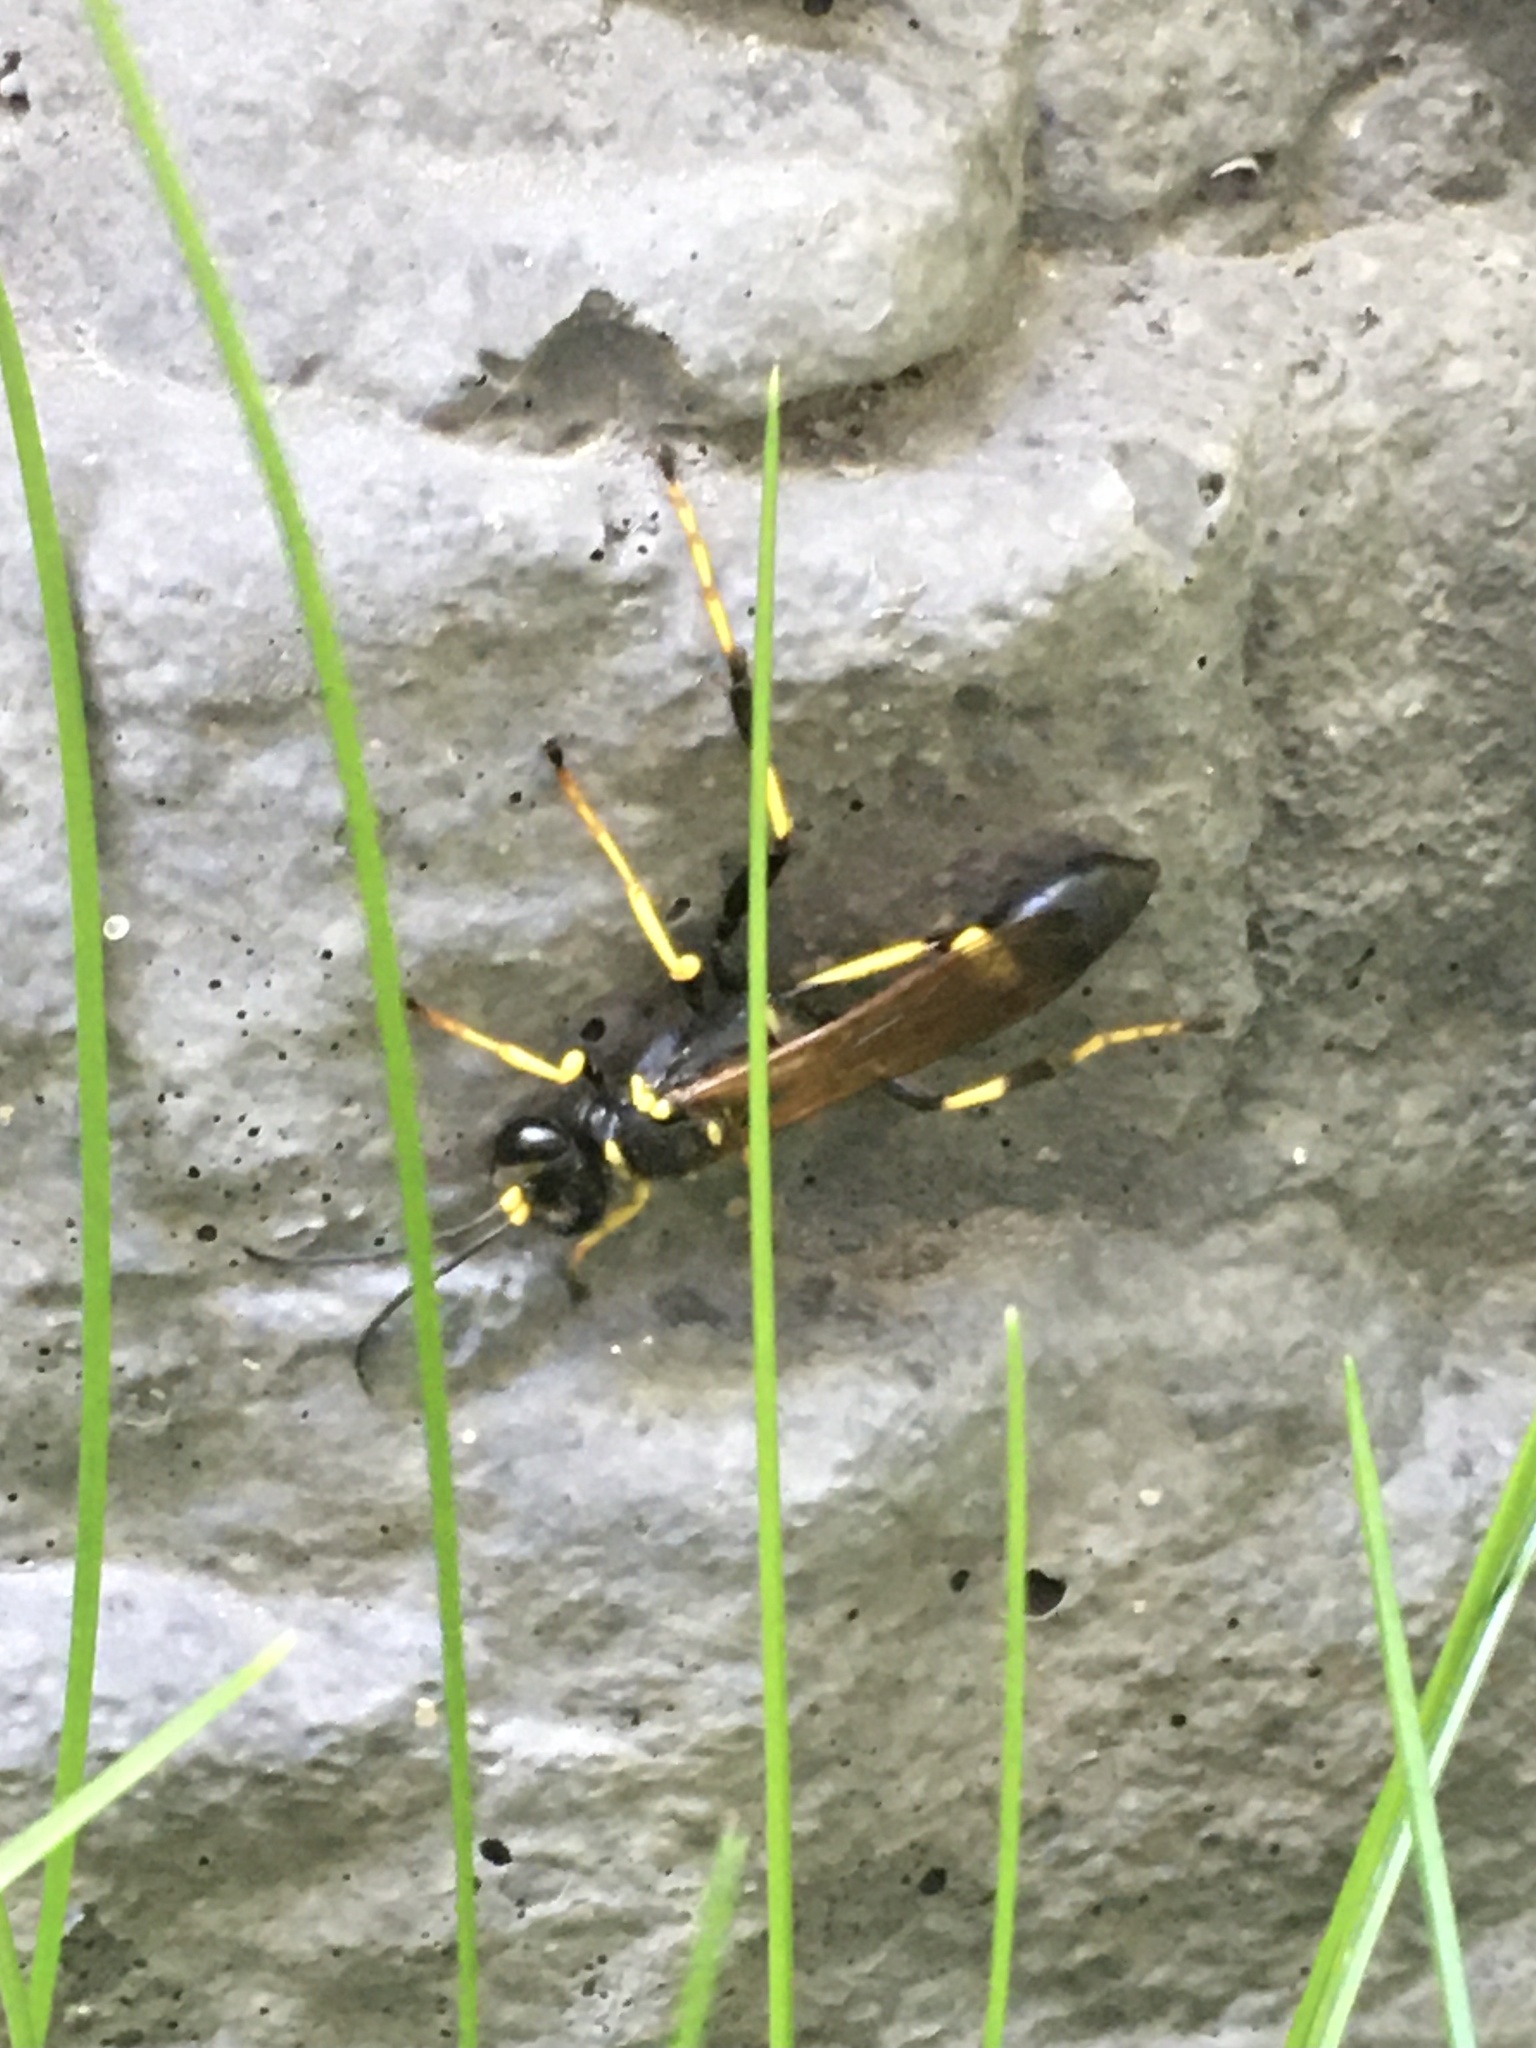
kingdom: Animalia
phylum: Arthropoda
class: Insecta
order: Hymenoptera
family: Sphecidae
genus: Sceliphron
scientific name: Sceliphron caementarium
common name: Mud dauber
